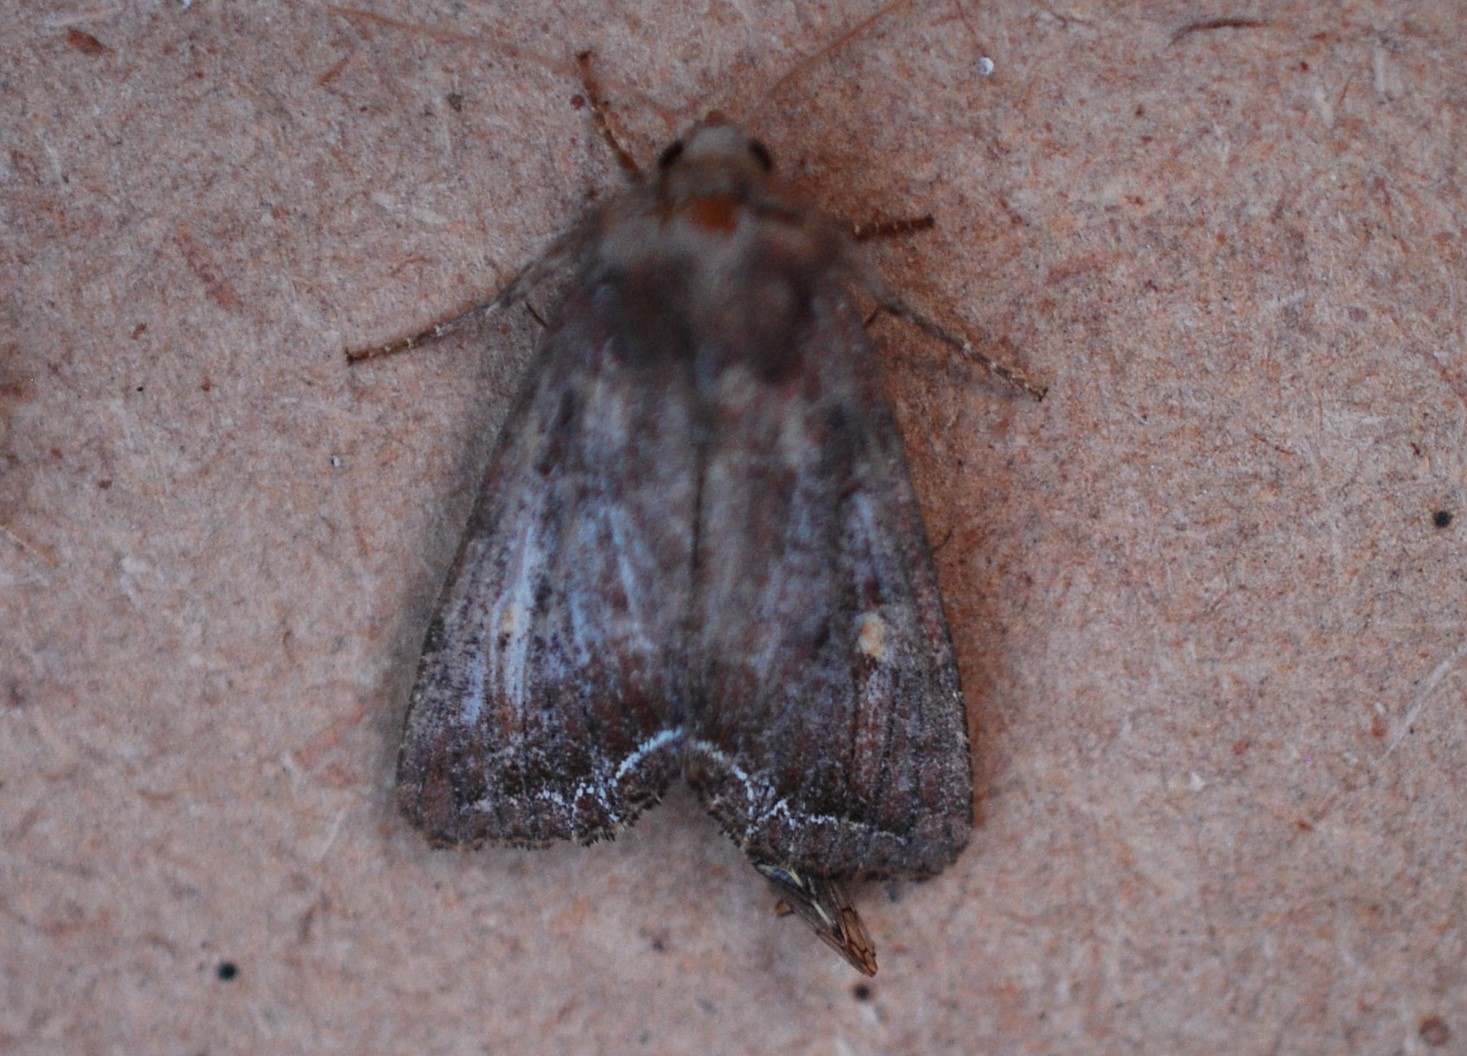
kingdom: Animalia
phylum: Arthropoda
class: Insecta
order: Lepidoptera
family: Noctuidae
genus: Lacanobia
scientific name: Lacanobia oleracea
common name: Bright-line brown-eye
